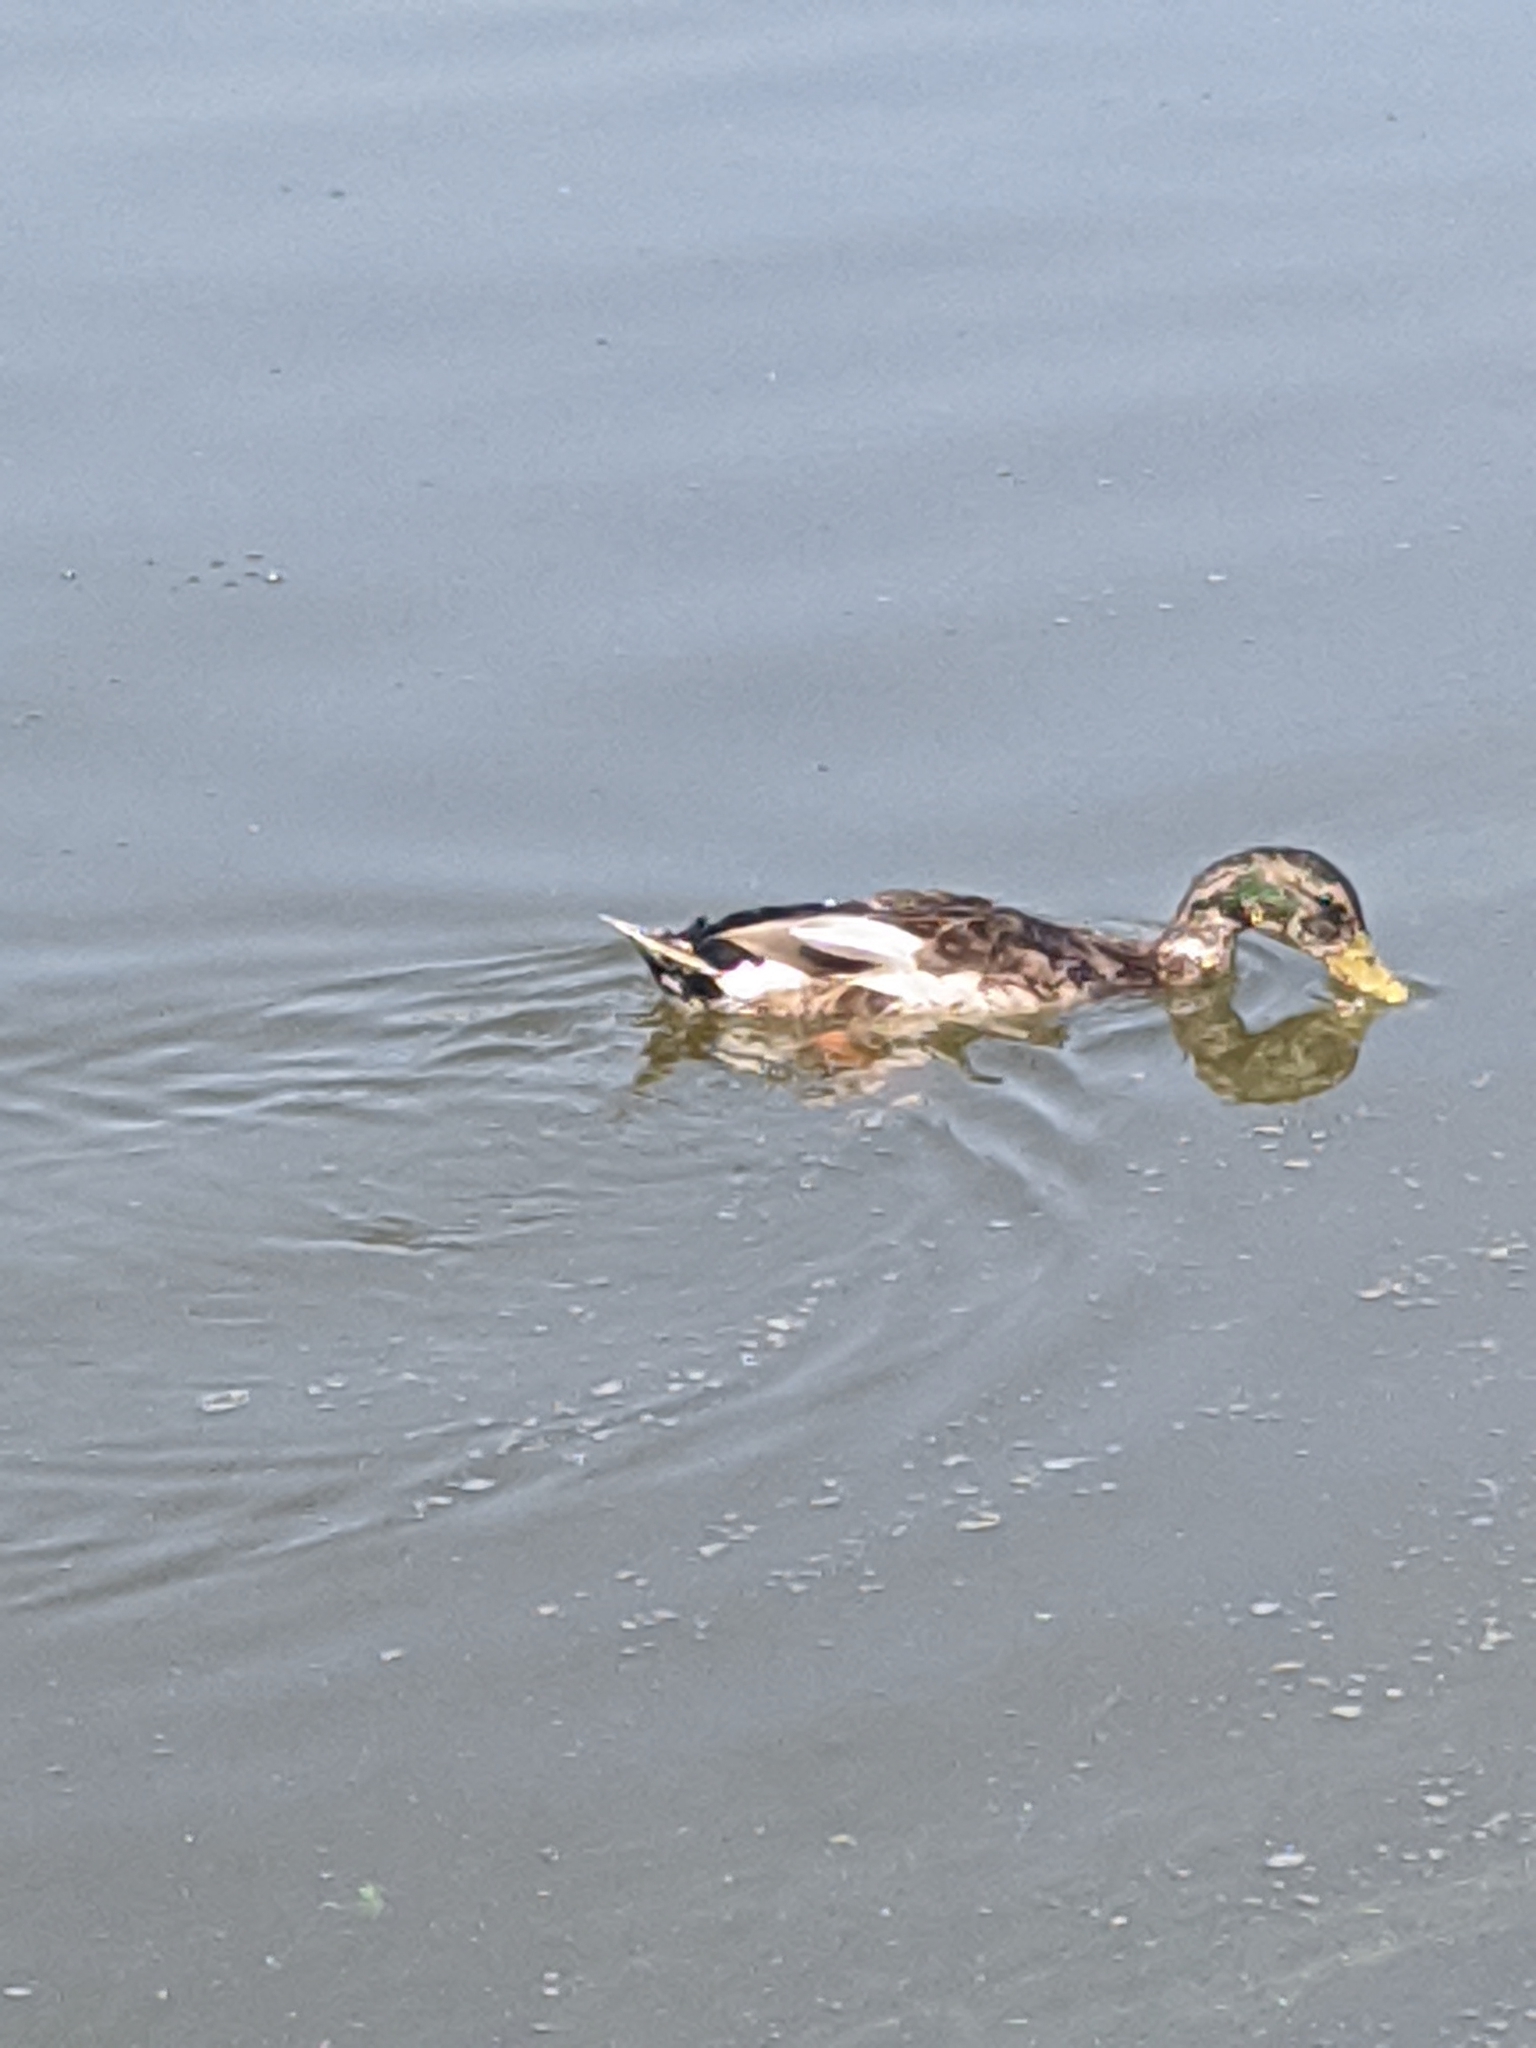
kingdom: Animalia
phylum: Chordata
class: Aves
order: Anseriformes
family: Anatidae
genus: Anas
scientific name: Anas platyrhynchos
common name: Mallard
